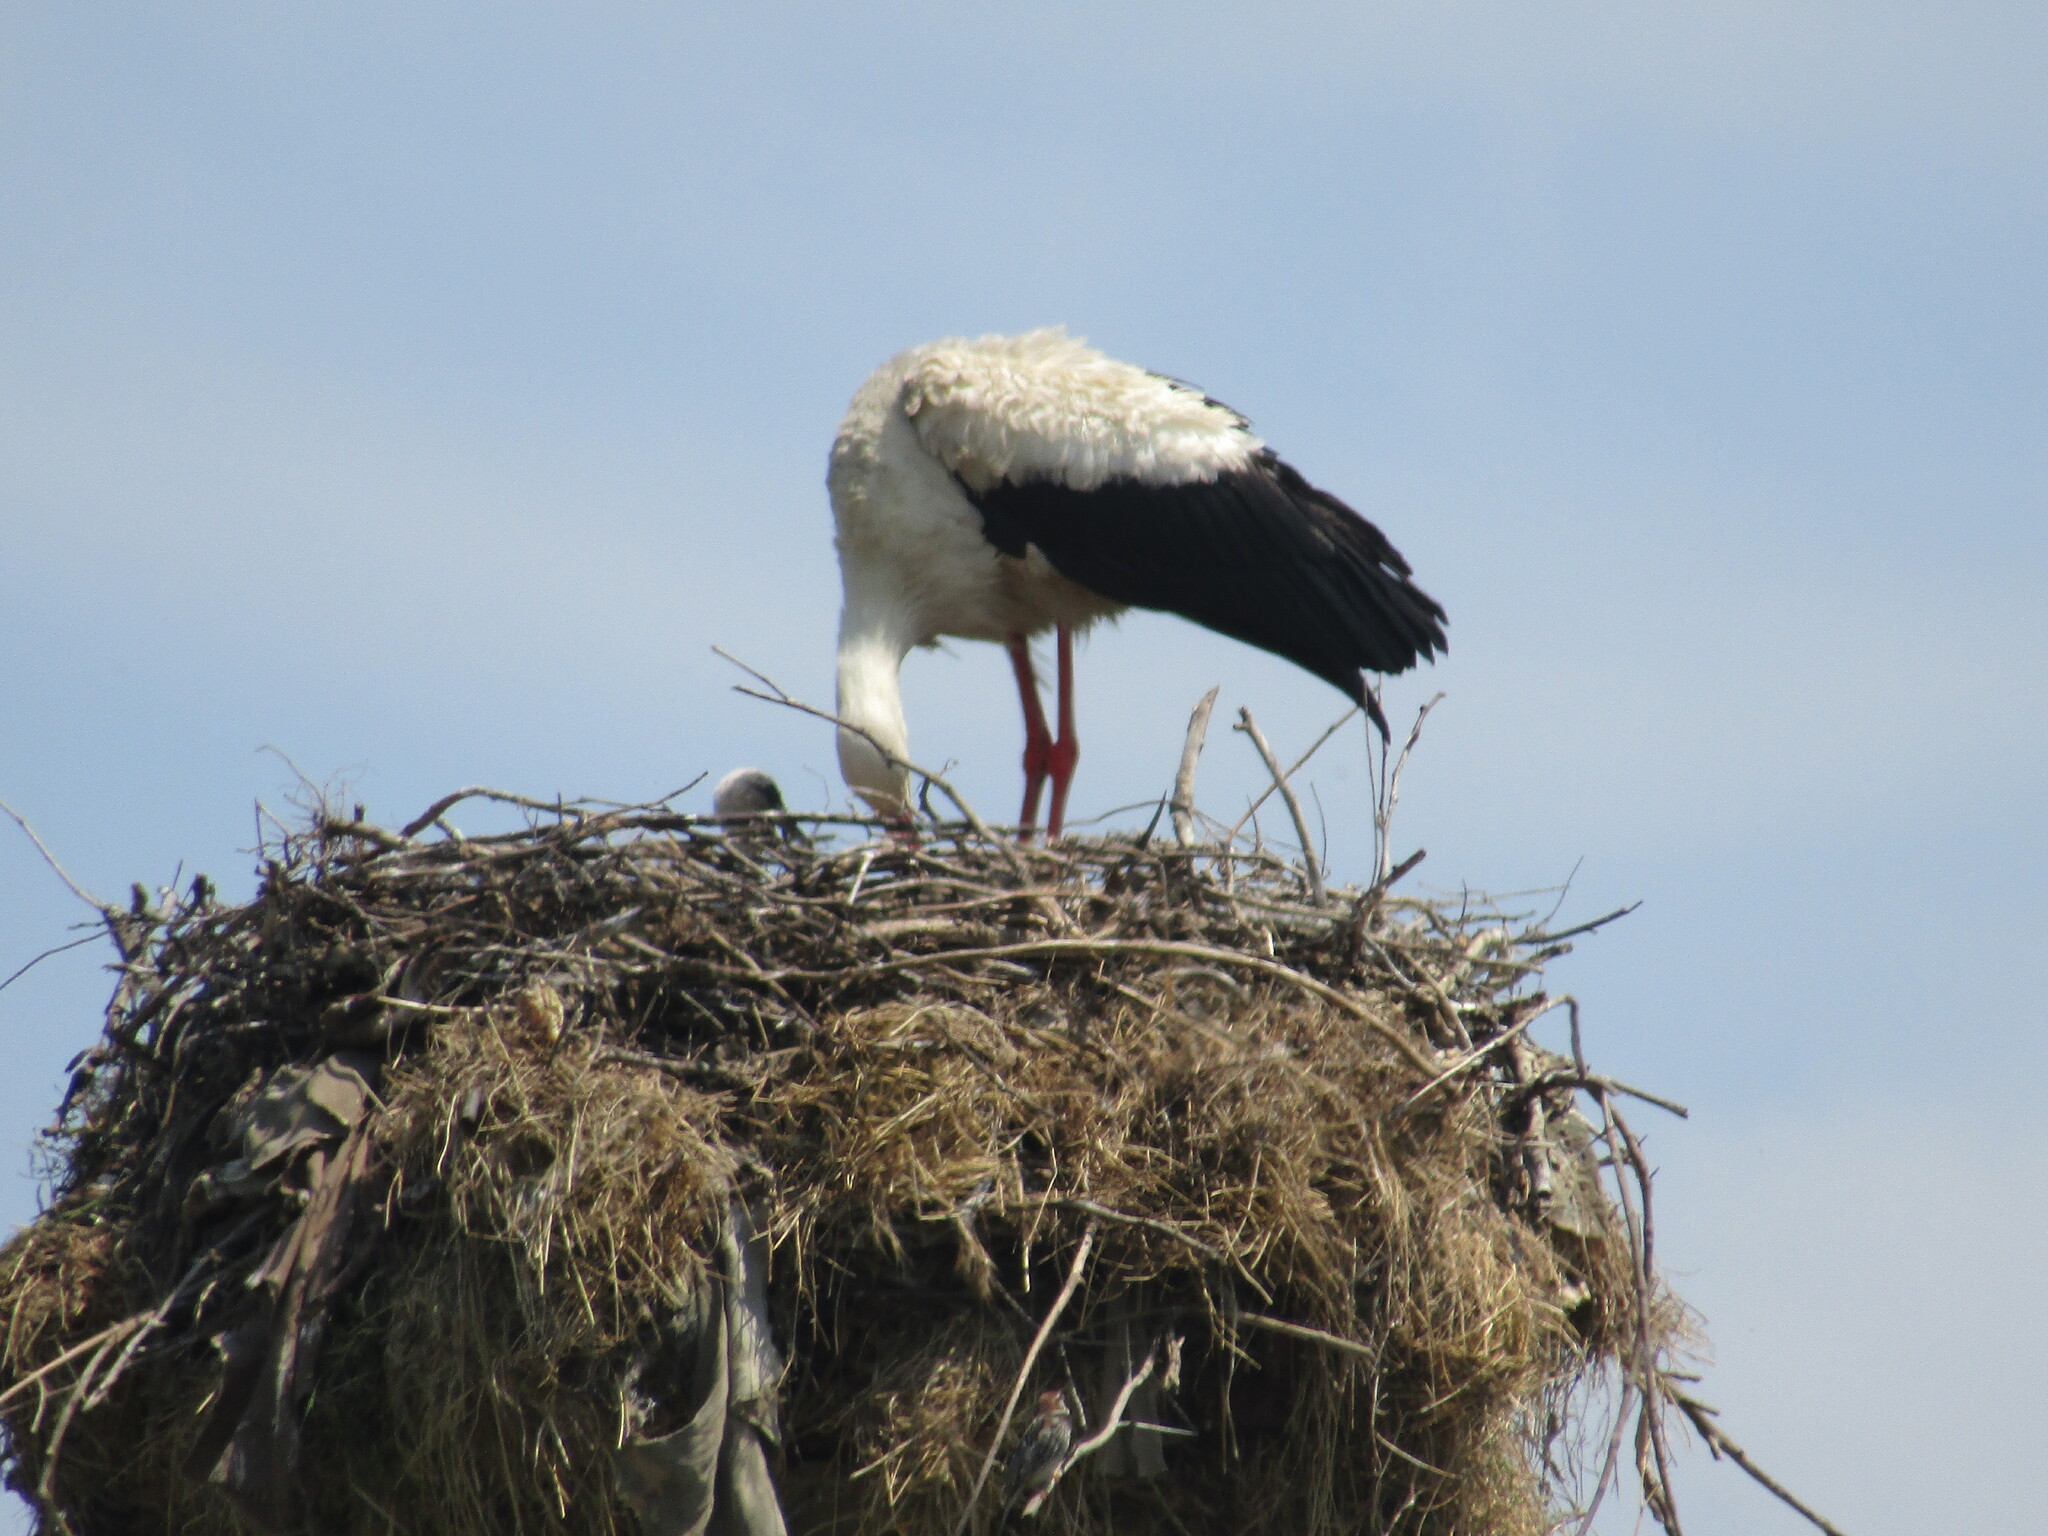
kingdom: Animalia
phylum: Chordata
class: Aves
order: Ciconiiformes
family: Ciconiidae
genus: Ciconia
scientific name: Ciconia ciconia
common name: White stork
